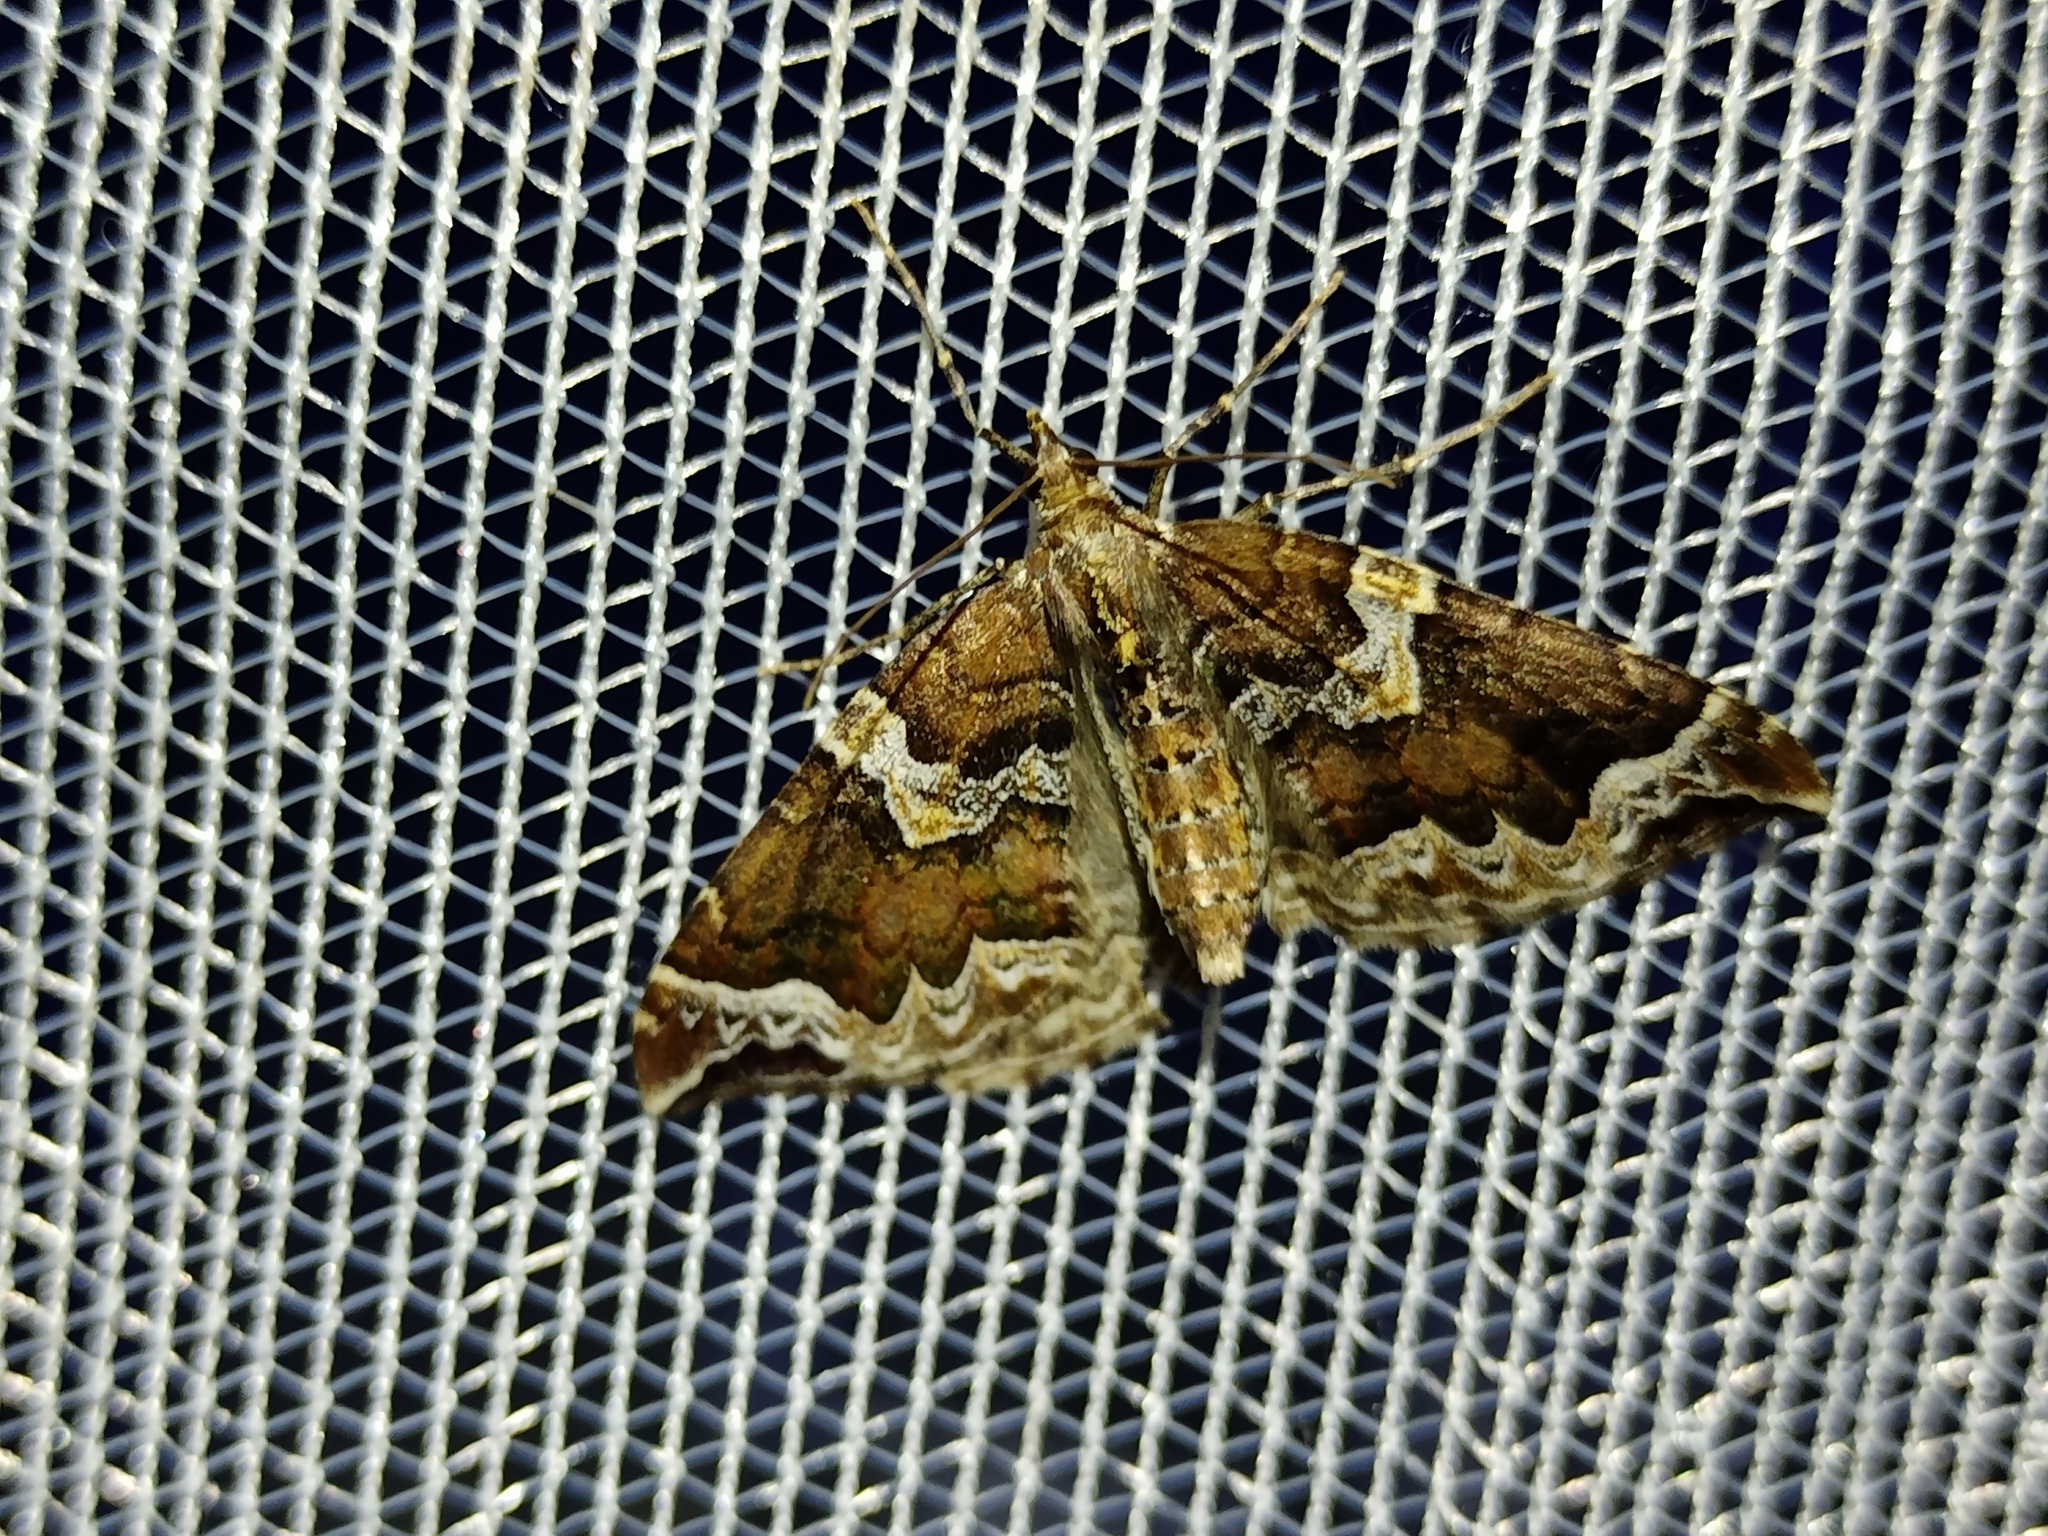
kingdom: Animalia
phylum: Arthropoda
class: Insecta
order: Lepidoptera
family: Geometridae
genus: Eulithis
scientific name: Eulithis prunata
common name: Phoenix
